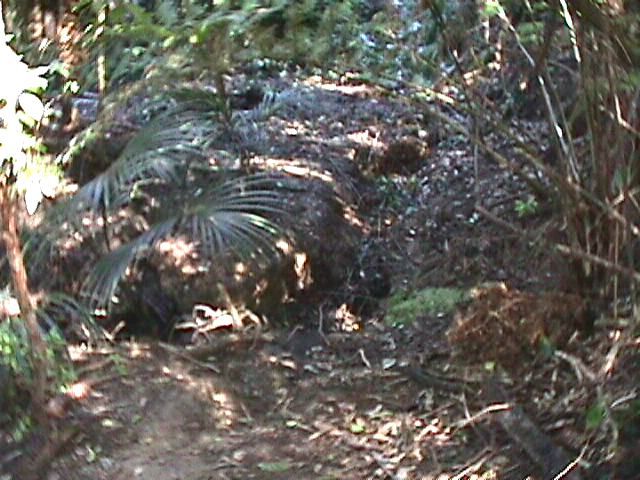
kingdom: Plantae
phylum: Tracheophyta
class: Liliopsida
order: Arecales
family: Arecaceae
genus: Rhopalostylis
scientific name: Rhopalostylis sapida
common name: Feather-duster palm
